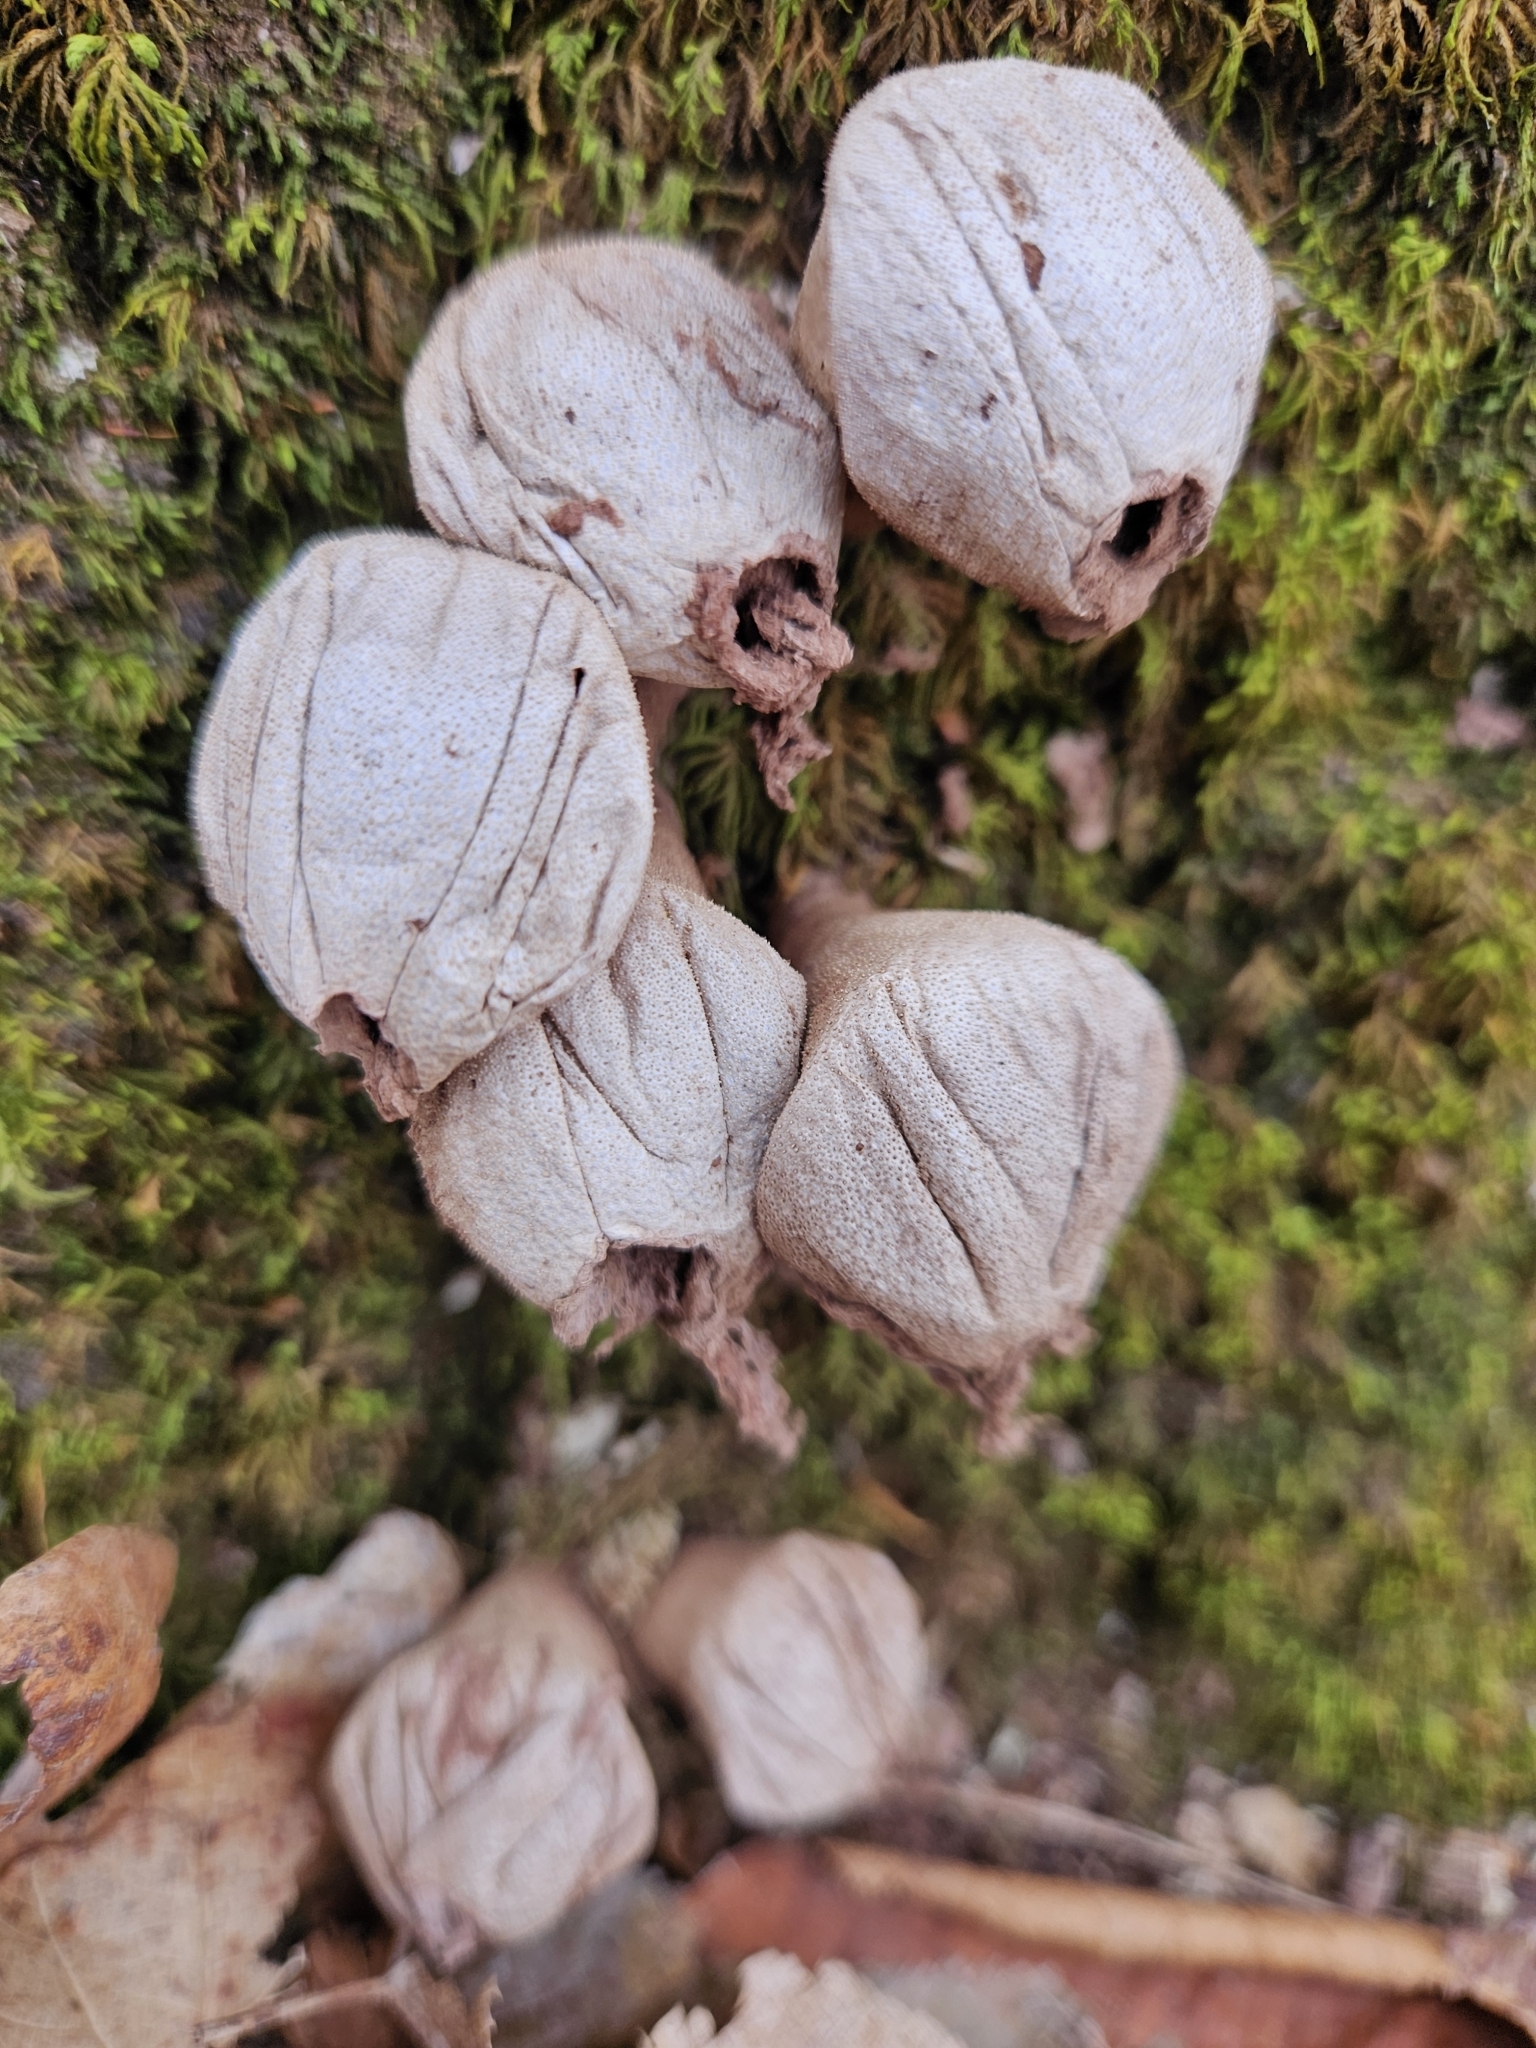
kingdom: Fungi
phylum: Basidiomycota
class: Agaricomycetes
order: Agaricales
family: Lycoperdaceae
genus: Apioperdon
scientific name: Apioperdon pyriforme
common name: Pear-shaped puffball
